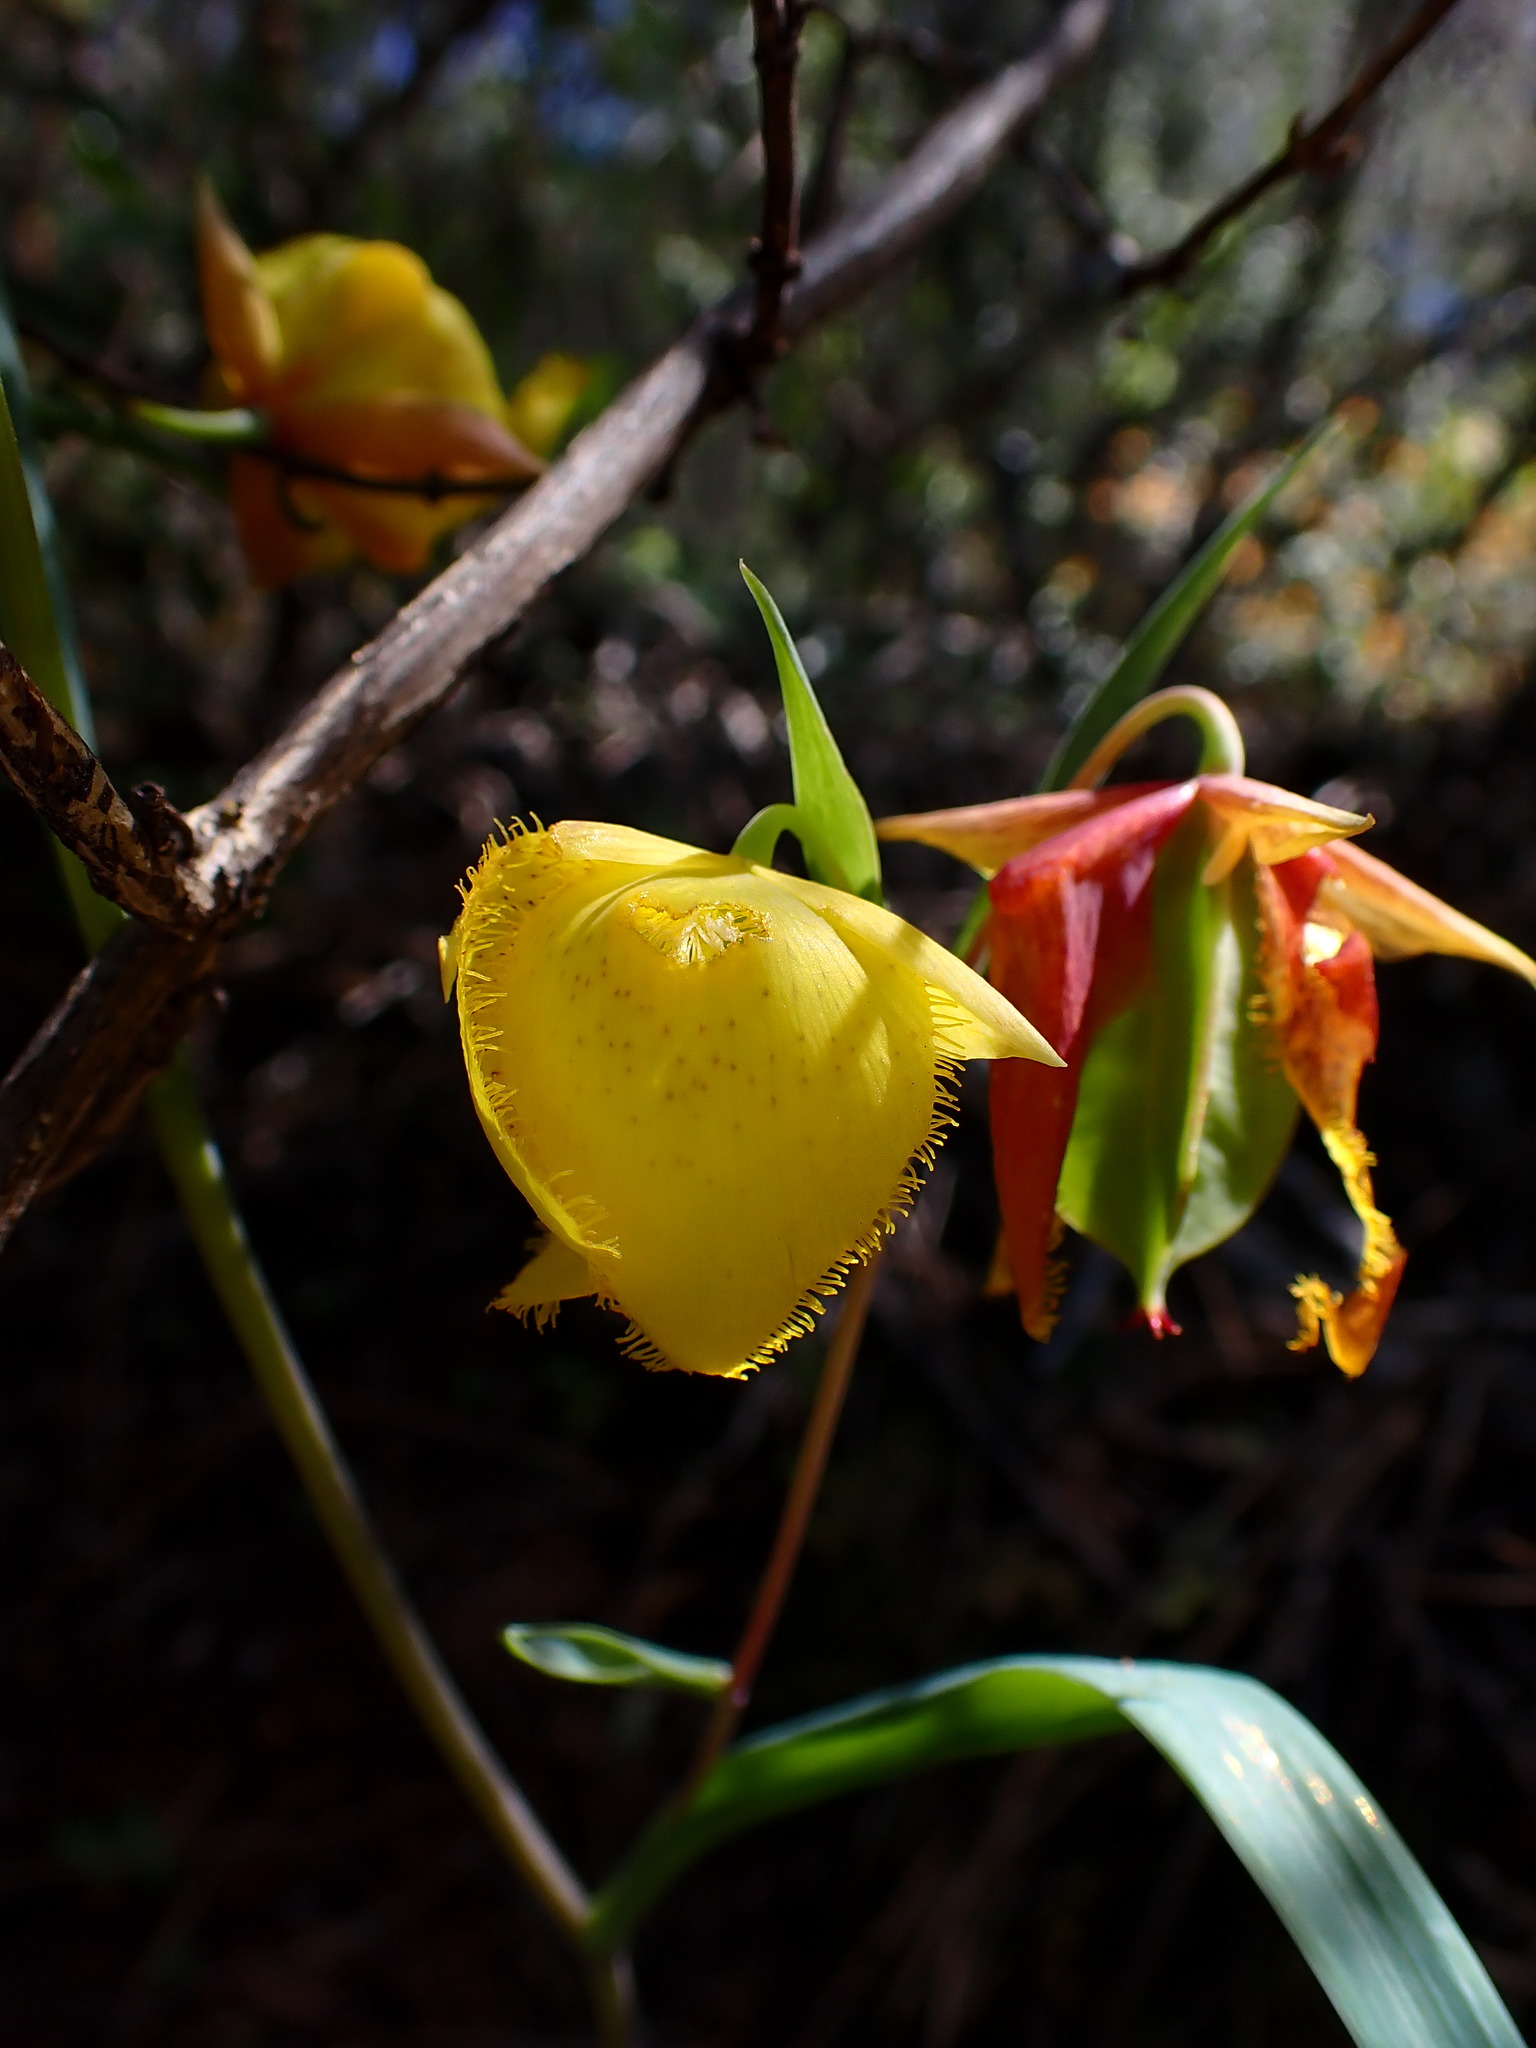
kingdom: Plantae
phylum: Tracheophyta
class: Liliopsida
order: Liliales
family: Liliaceae
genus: Calochortus
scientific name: Calochortus pulchellus
